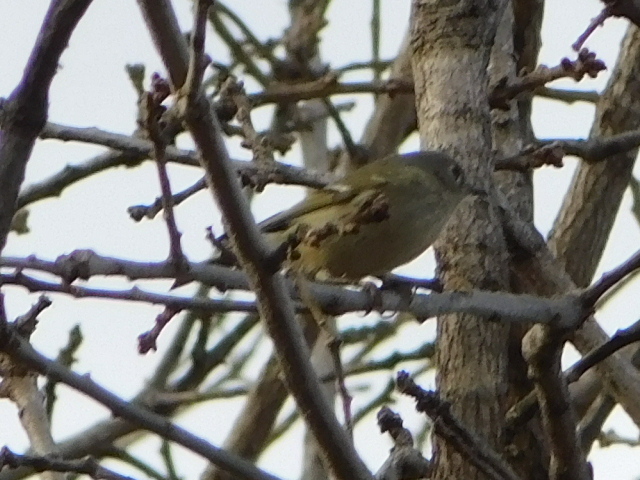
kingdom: Animalia
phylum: Chordata
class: Aves
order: Passeriformes
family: Regulidae
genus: Regulus
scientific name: Regulus calendula
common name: Ruby-crowned kinglet
